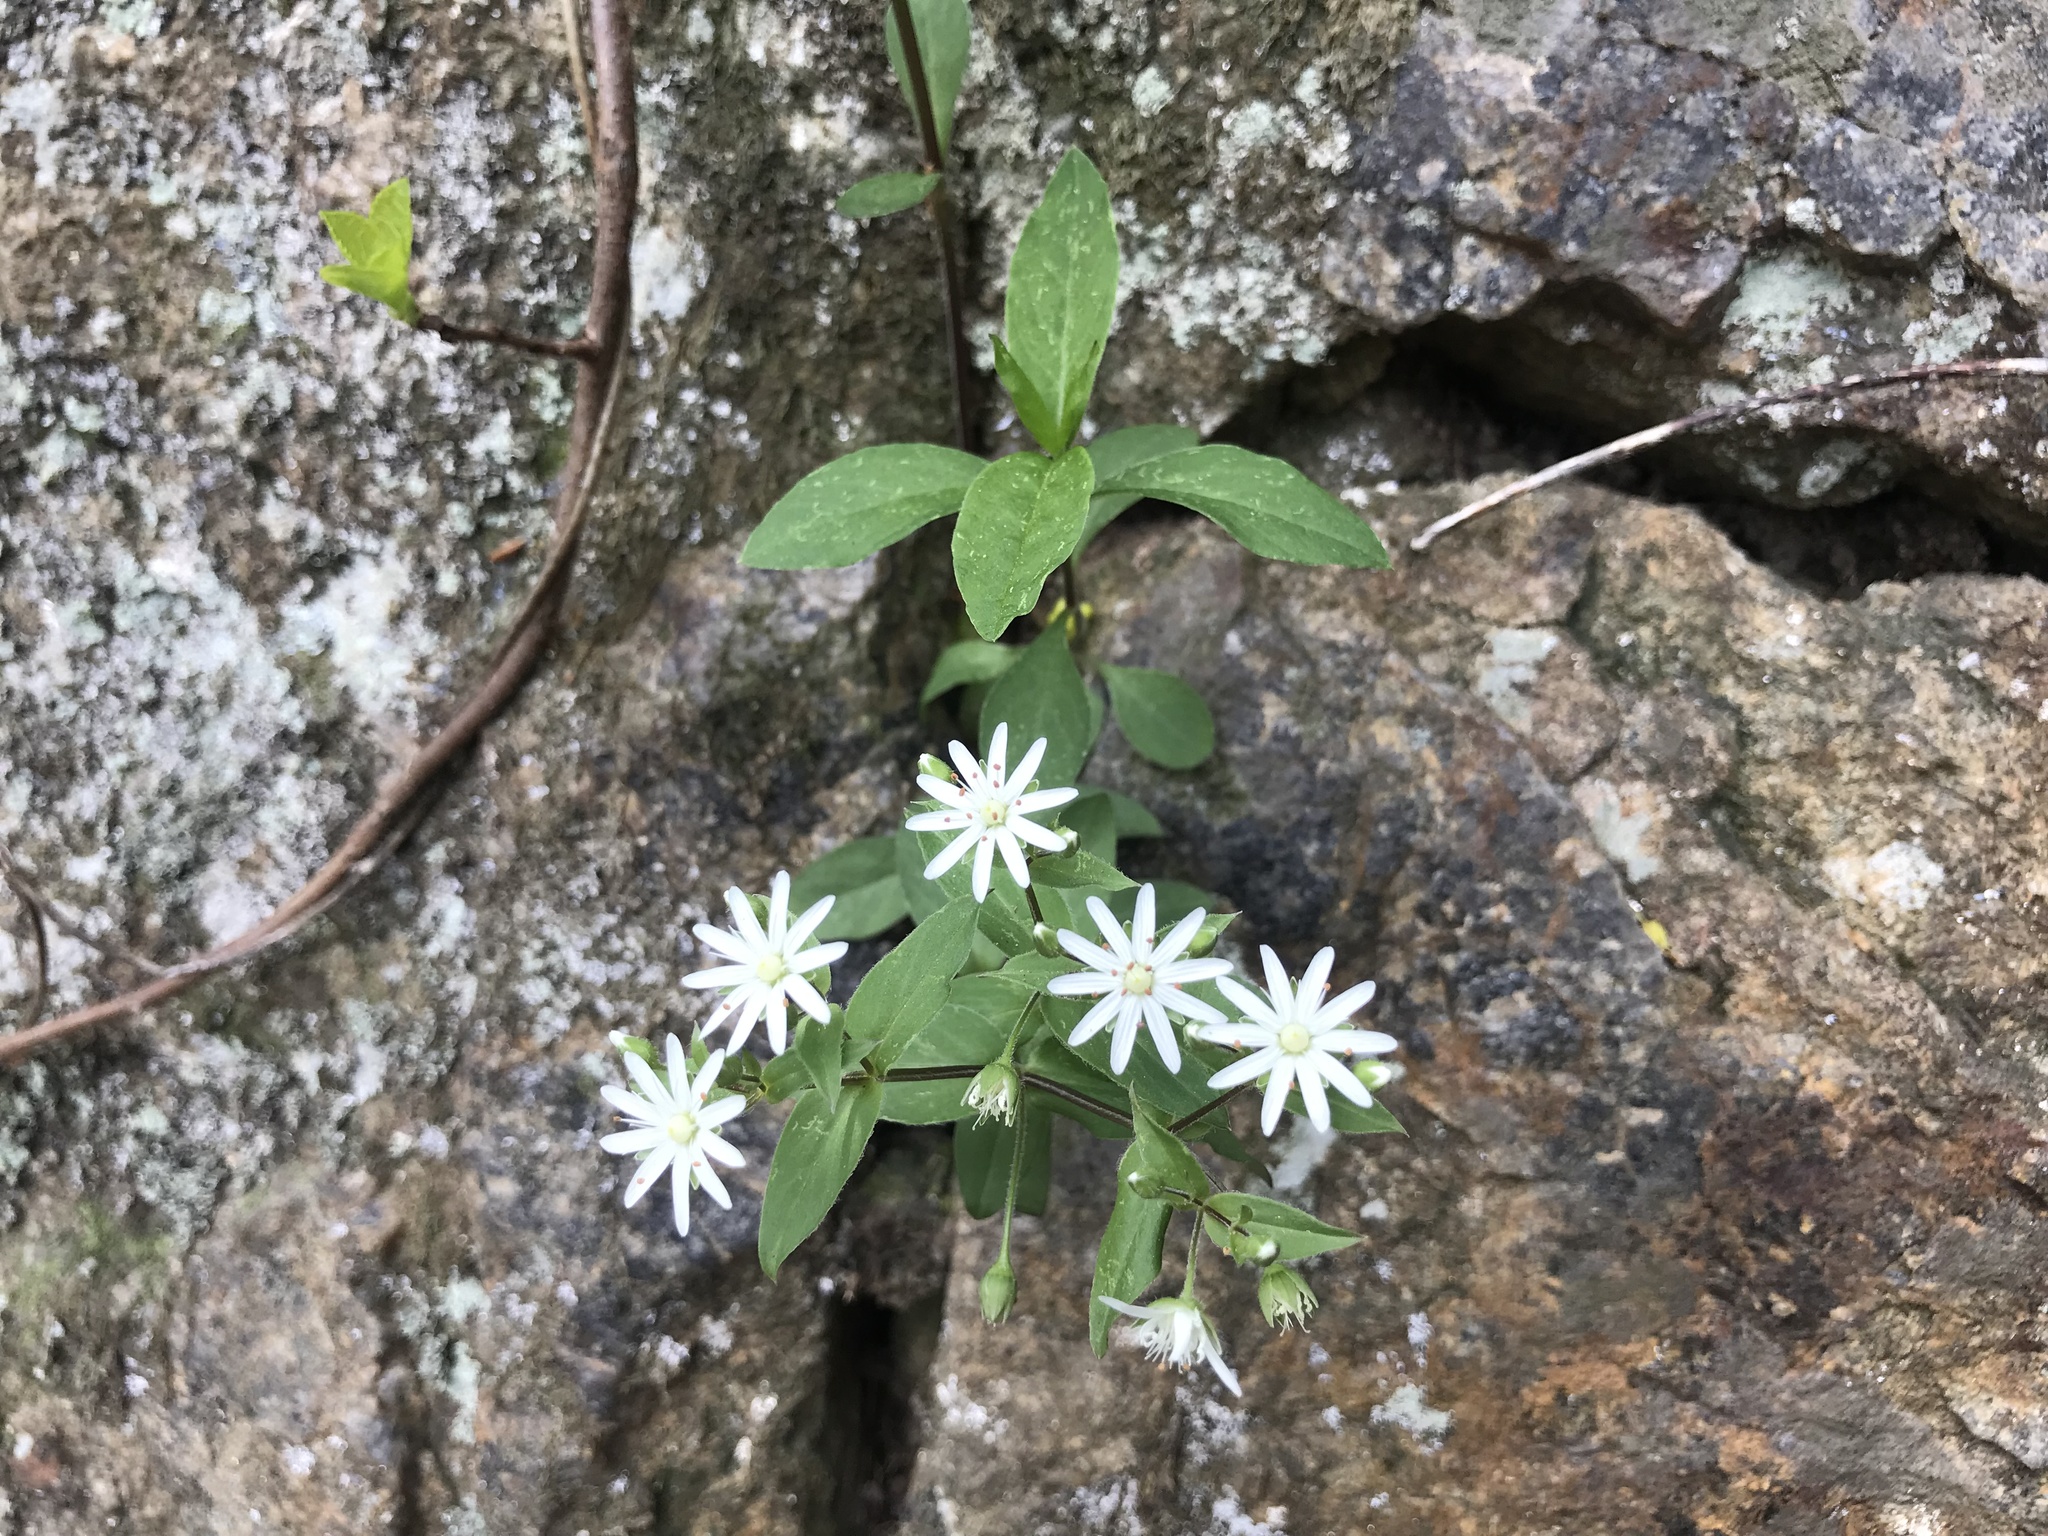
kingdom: Plantae
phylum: Tracheophyta
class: Magnoliopsida
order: Caryophyllales
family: Caryophyllaceae
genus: Stellaria
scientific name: Stellaria pubera
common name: Star chickweed
